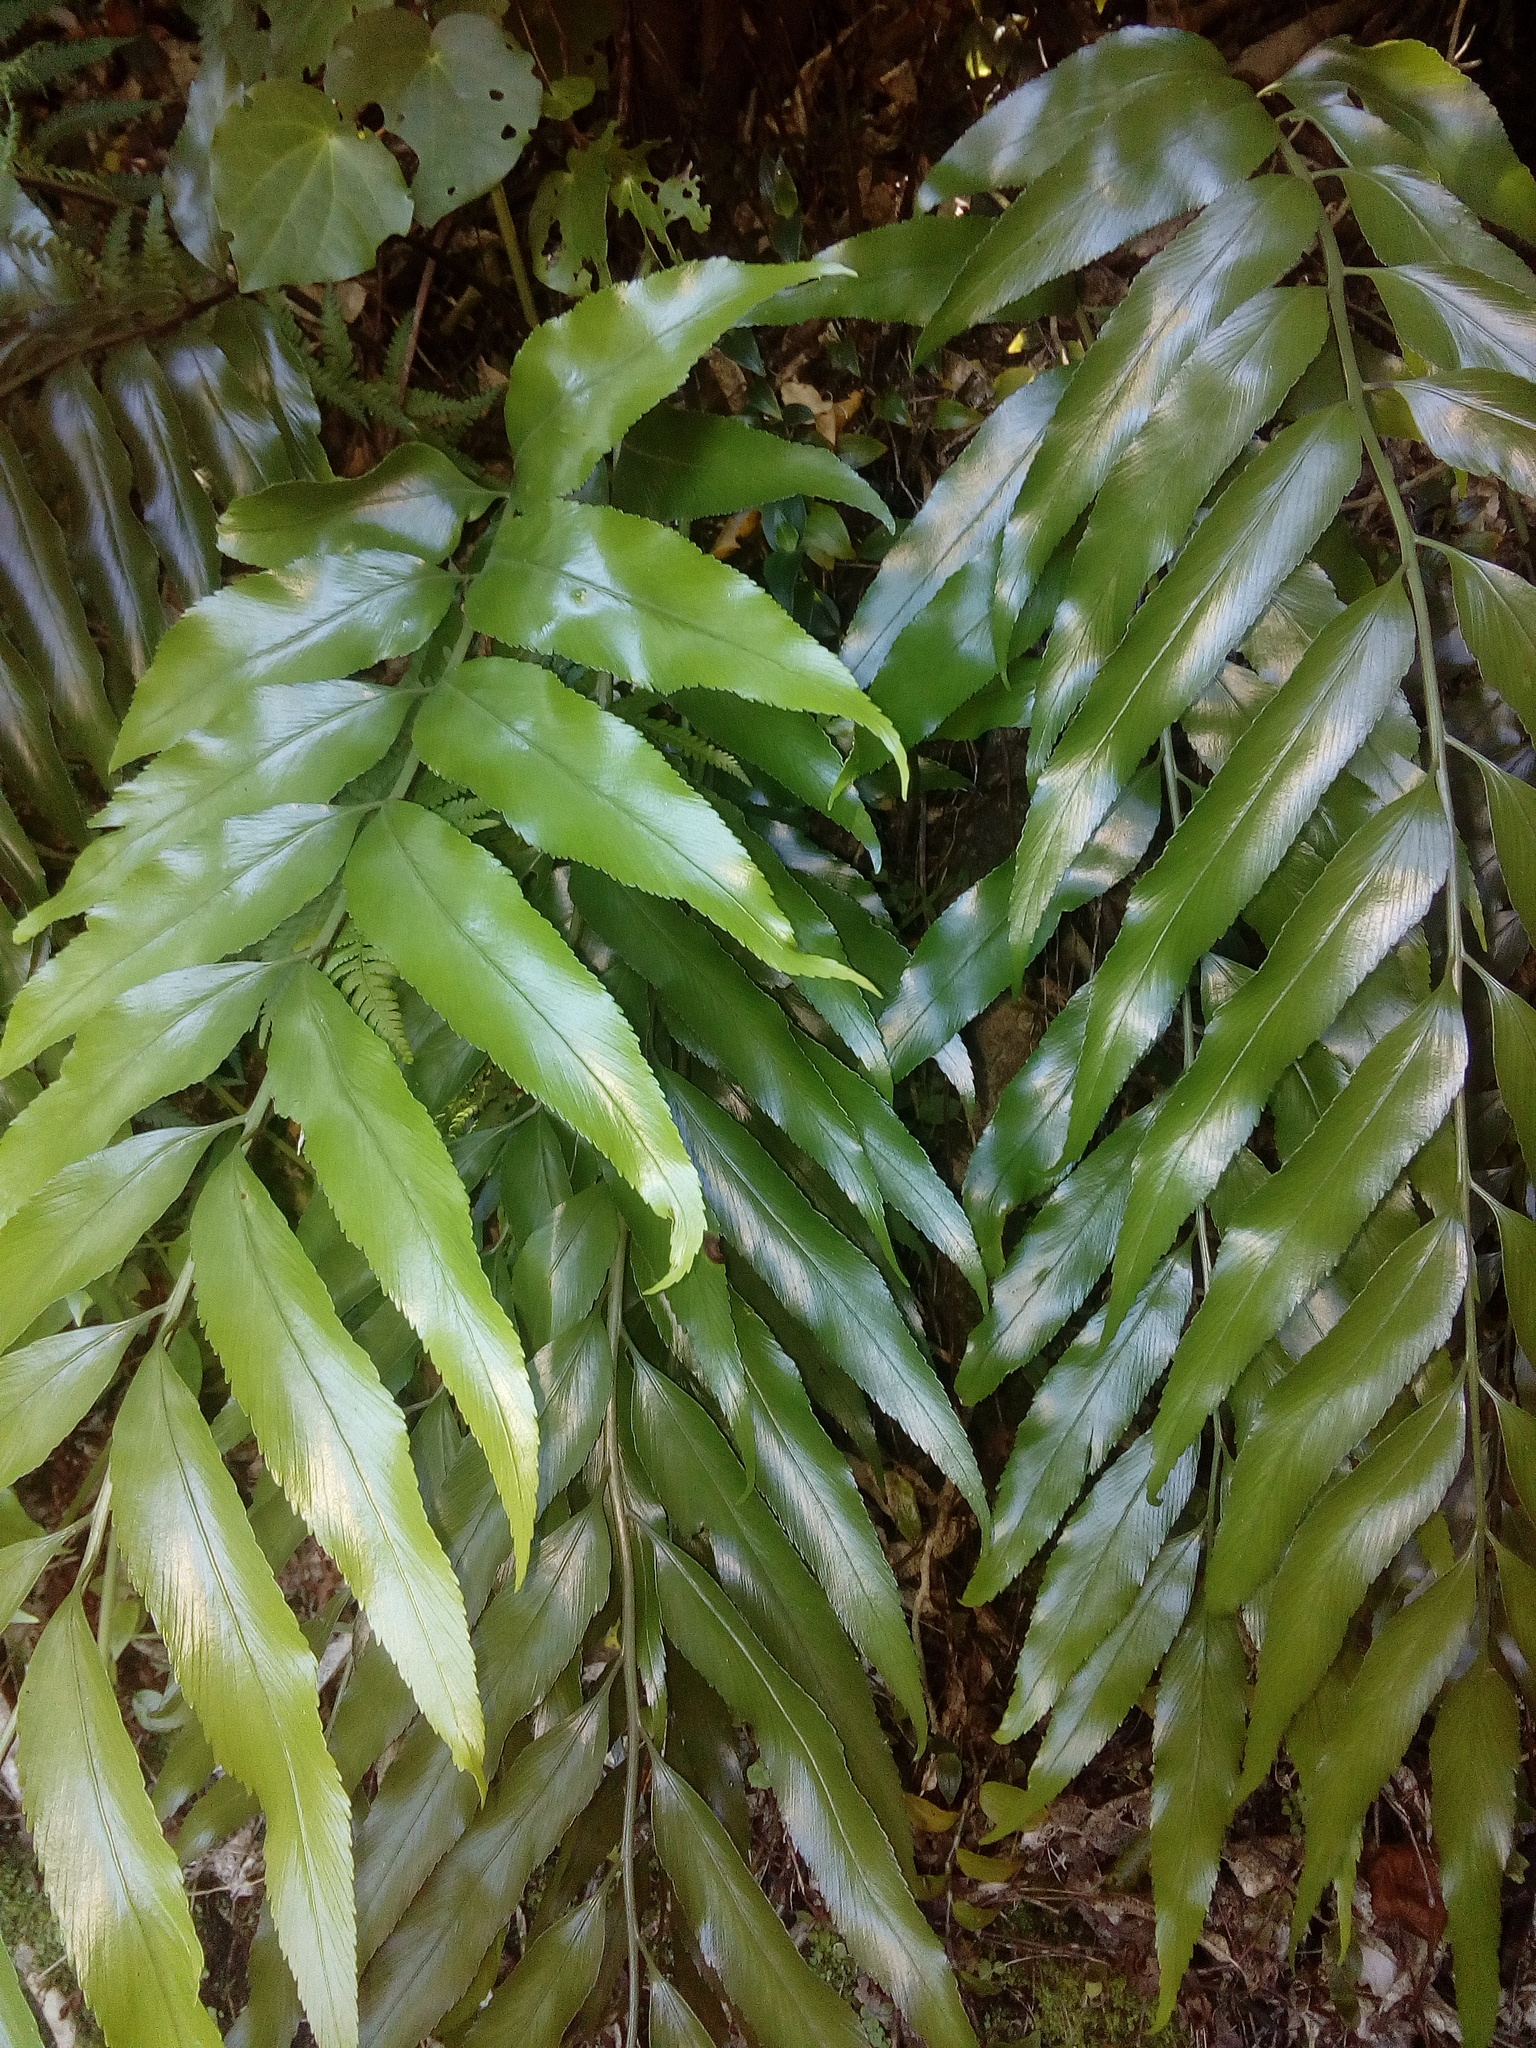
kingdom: Plantae
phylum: Tracheophyta
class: Polypodiopsida
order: Polypodiales
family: Aspleniaceae
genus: Asplenium
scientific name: Asplenium oblongifolium
